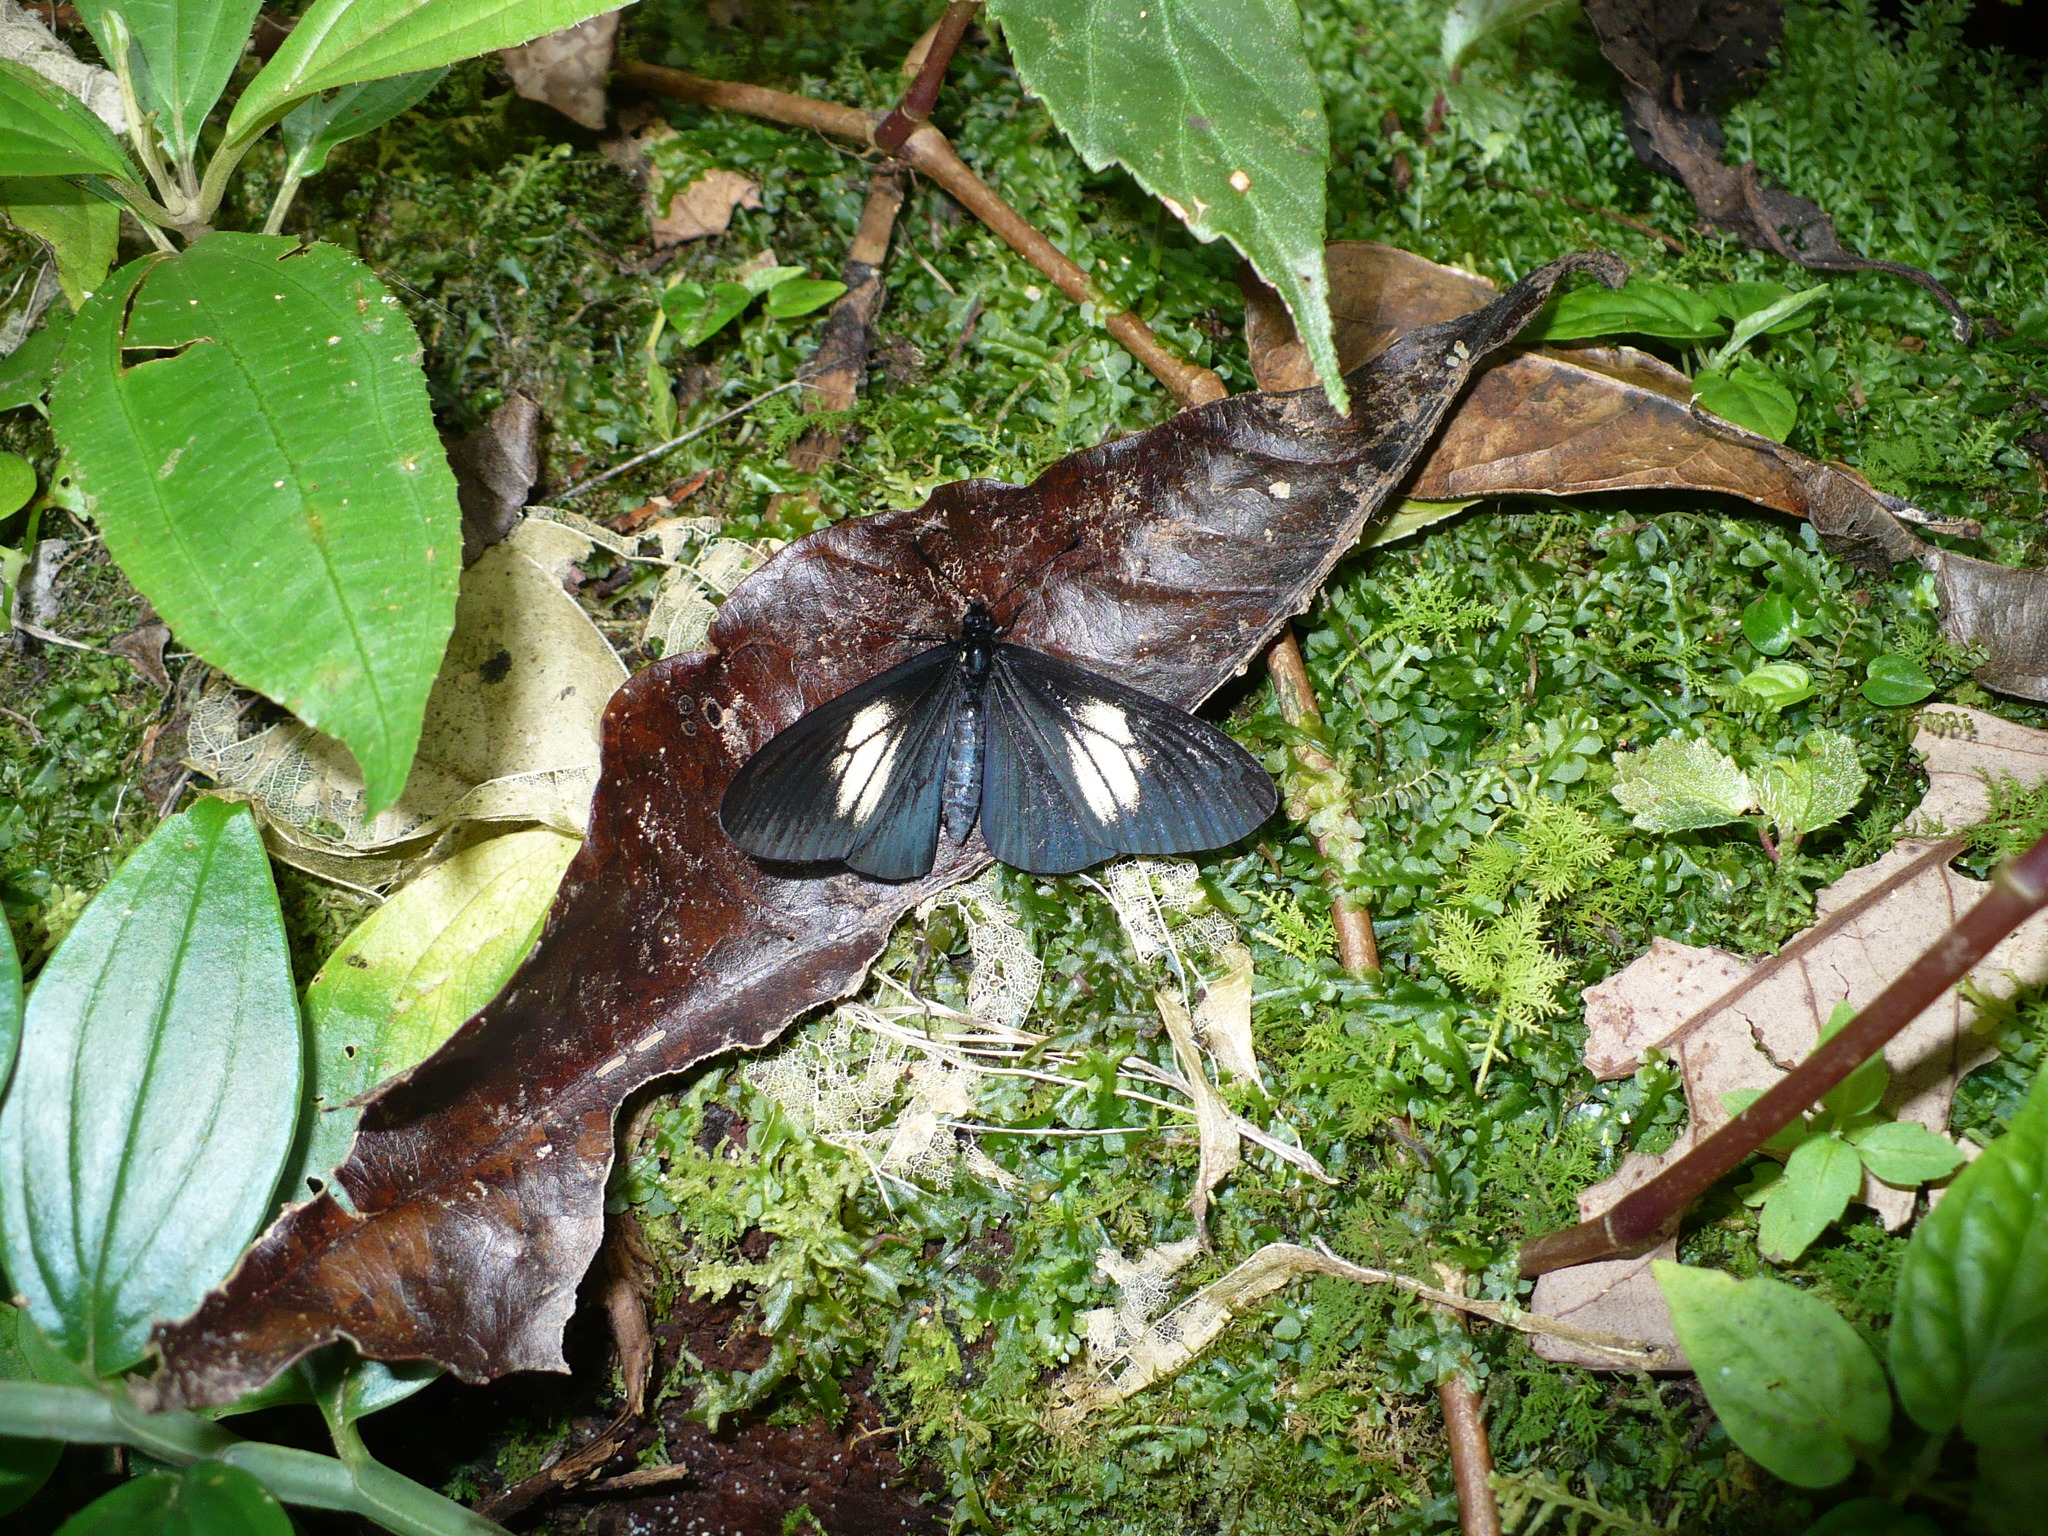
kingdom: Animalia
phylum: Arthropoda
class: Insecta
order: Lepidoptera
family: Nymphalidae
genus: Acraea
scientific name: Acraea Altinote ozomene
